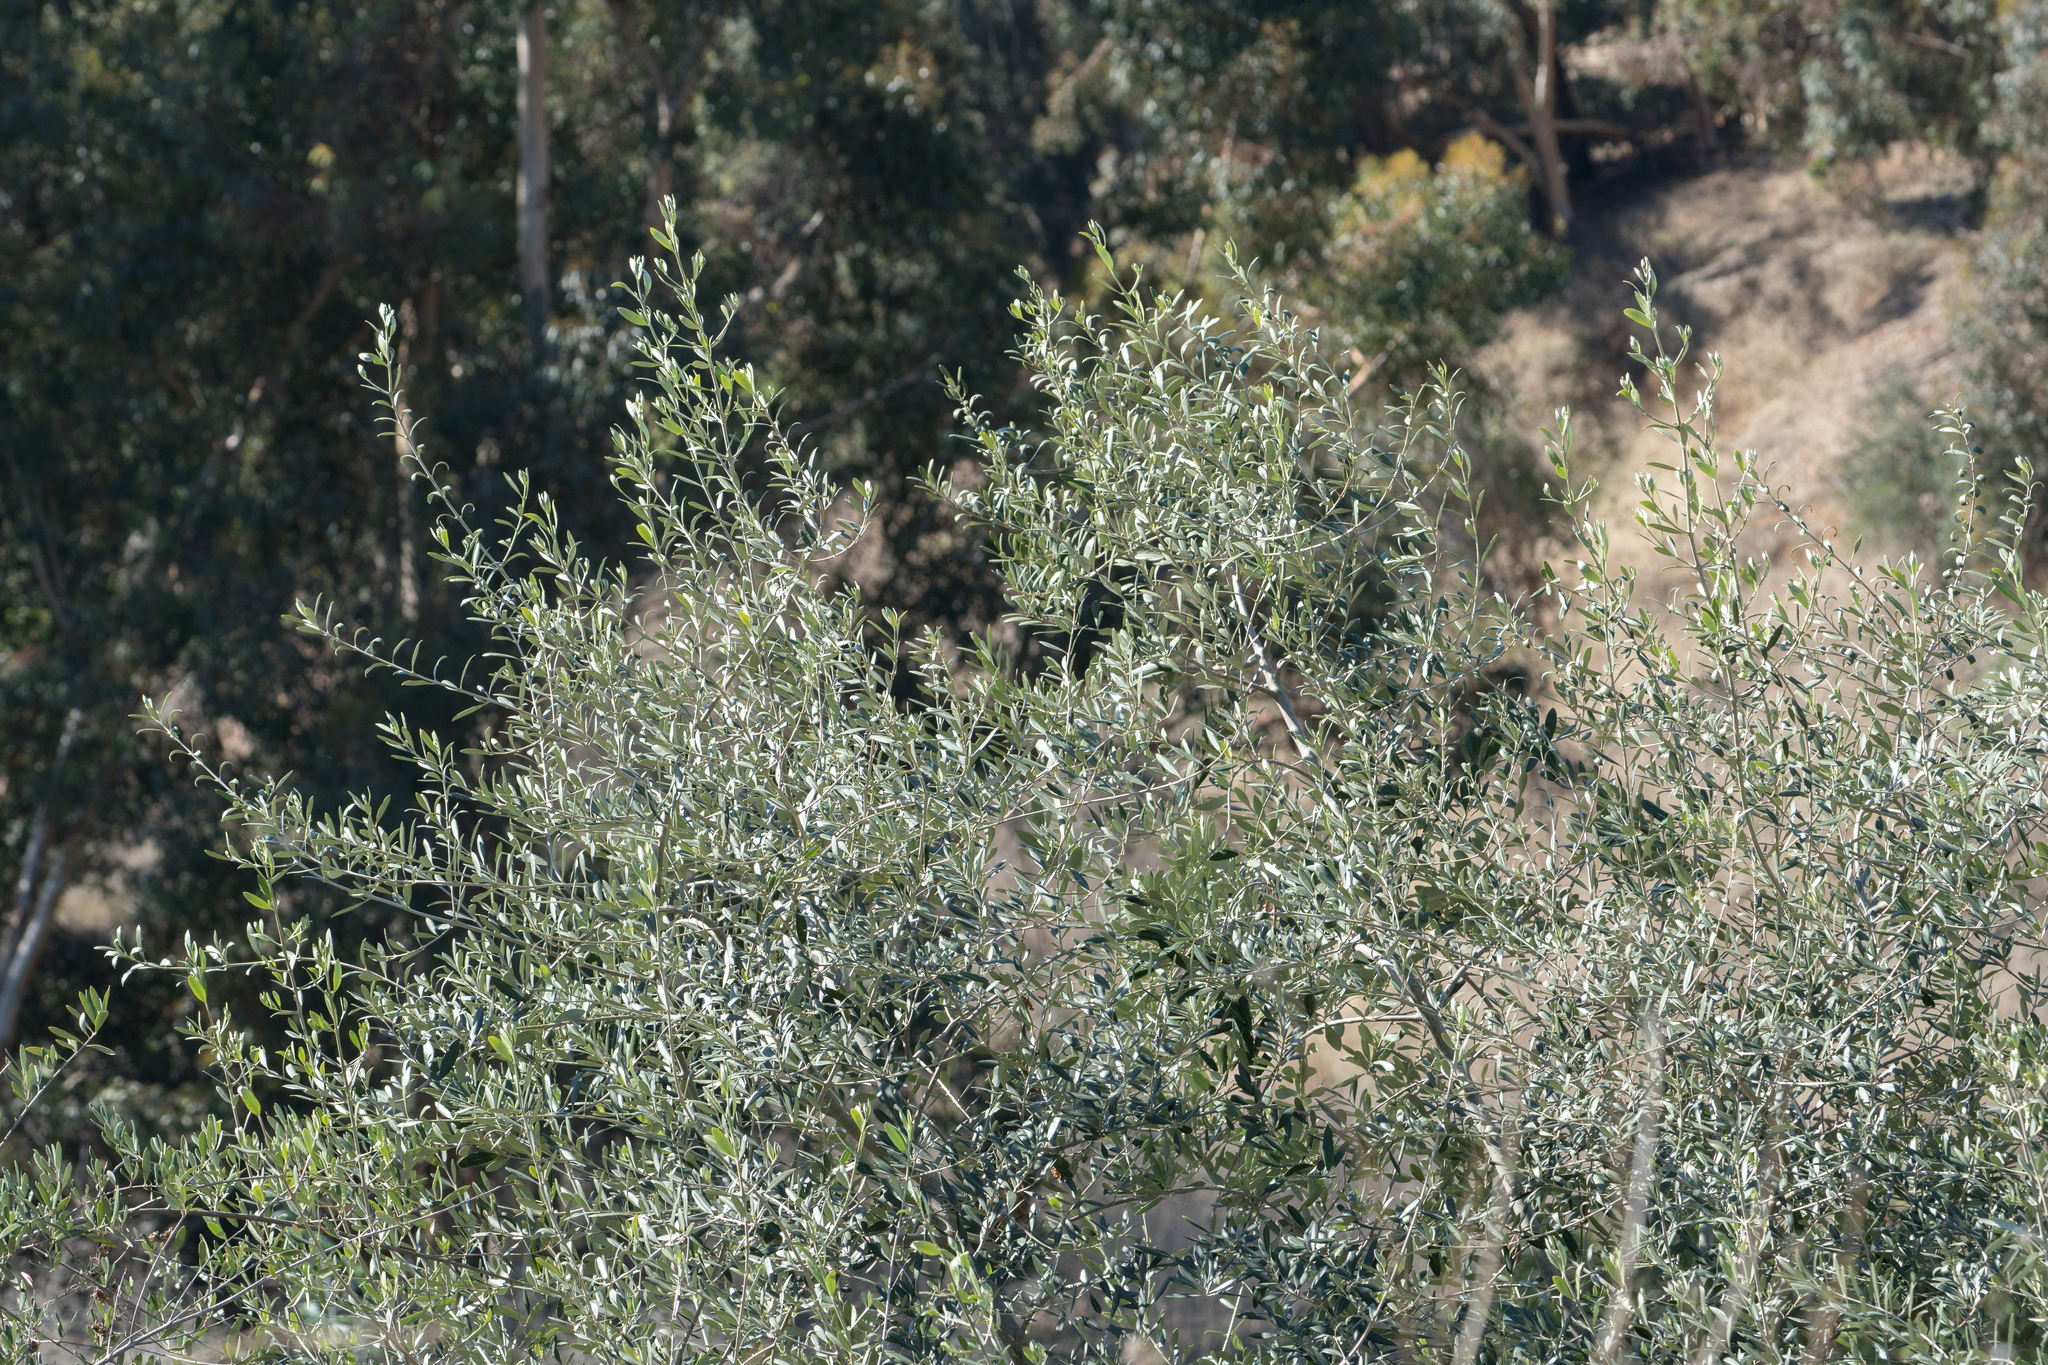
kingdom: Plantae
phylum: Tracheophyta
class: Magnoliopsida
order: Lamiales
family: Oleaceae
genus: Olea
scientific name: Olea europaea
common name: Olive
